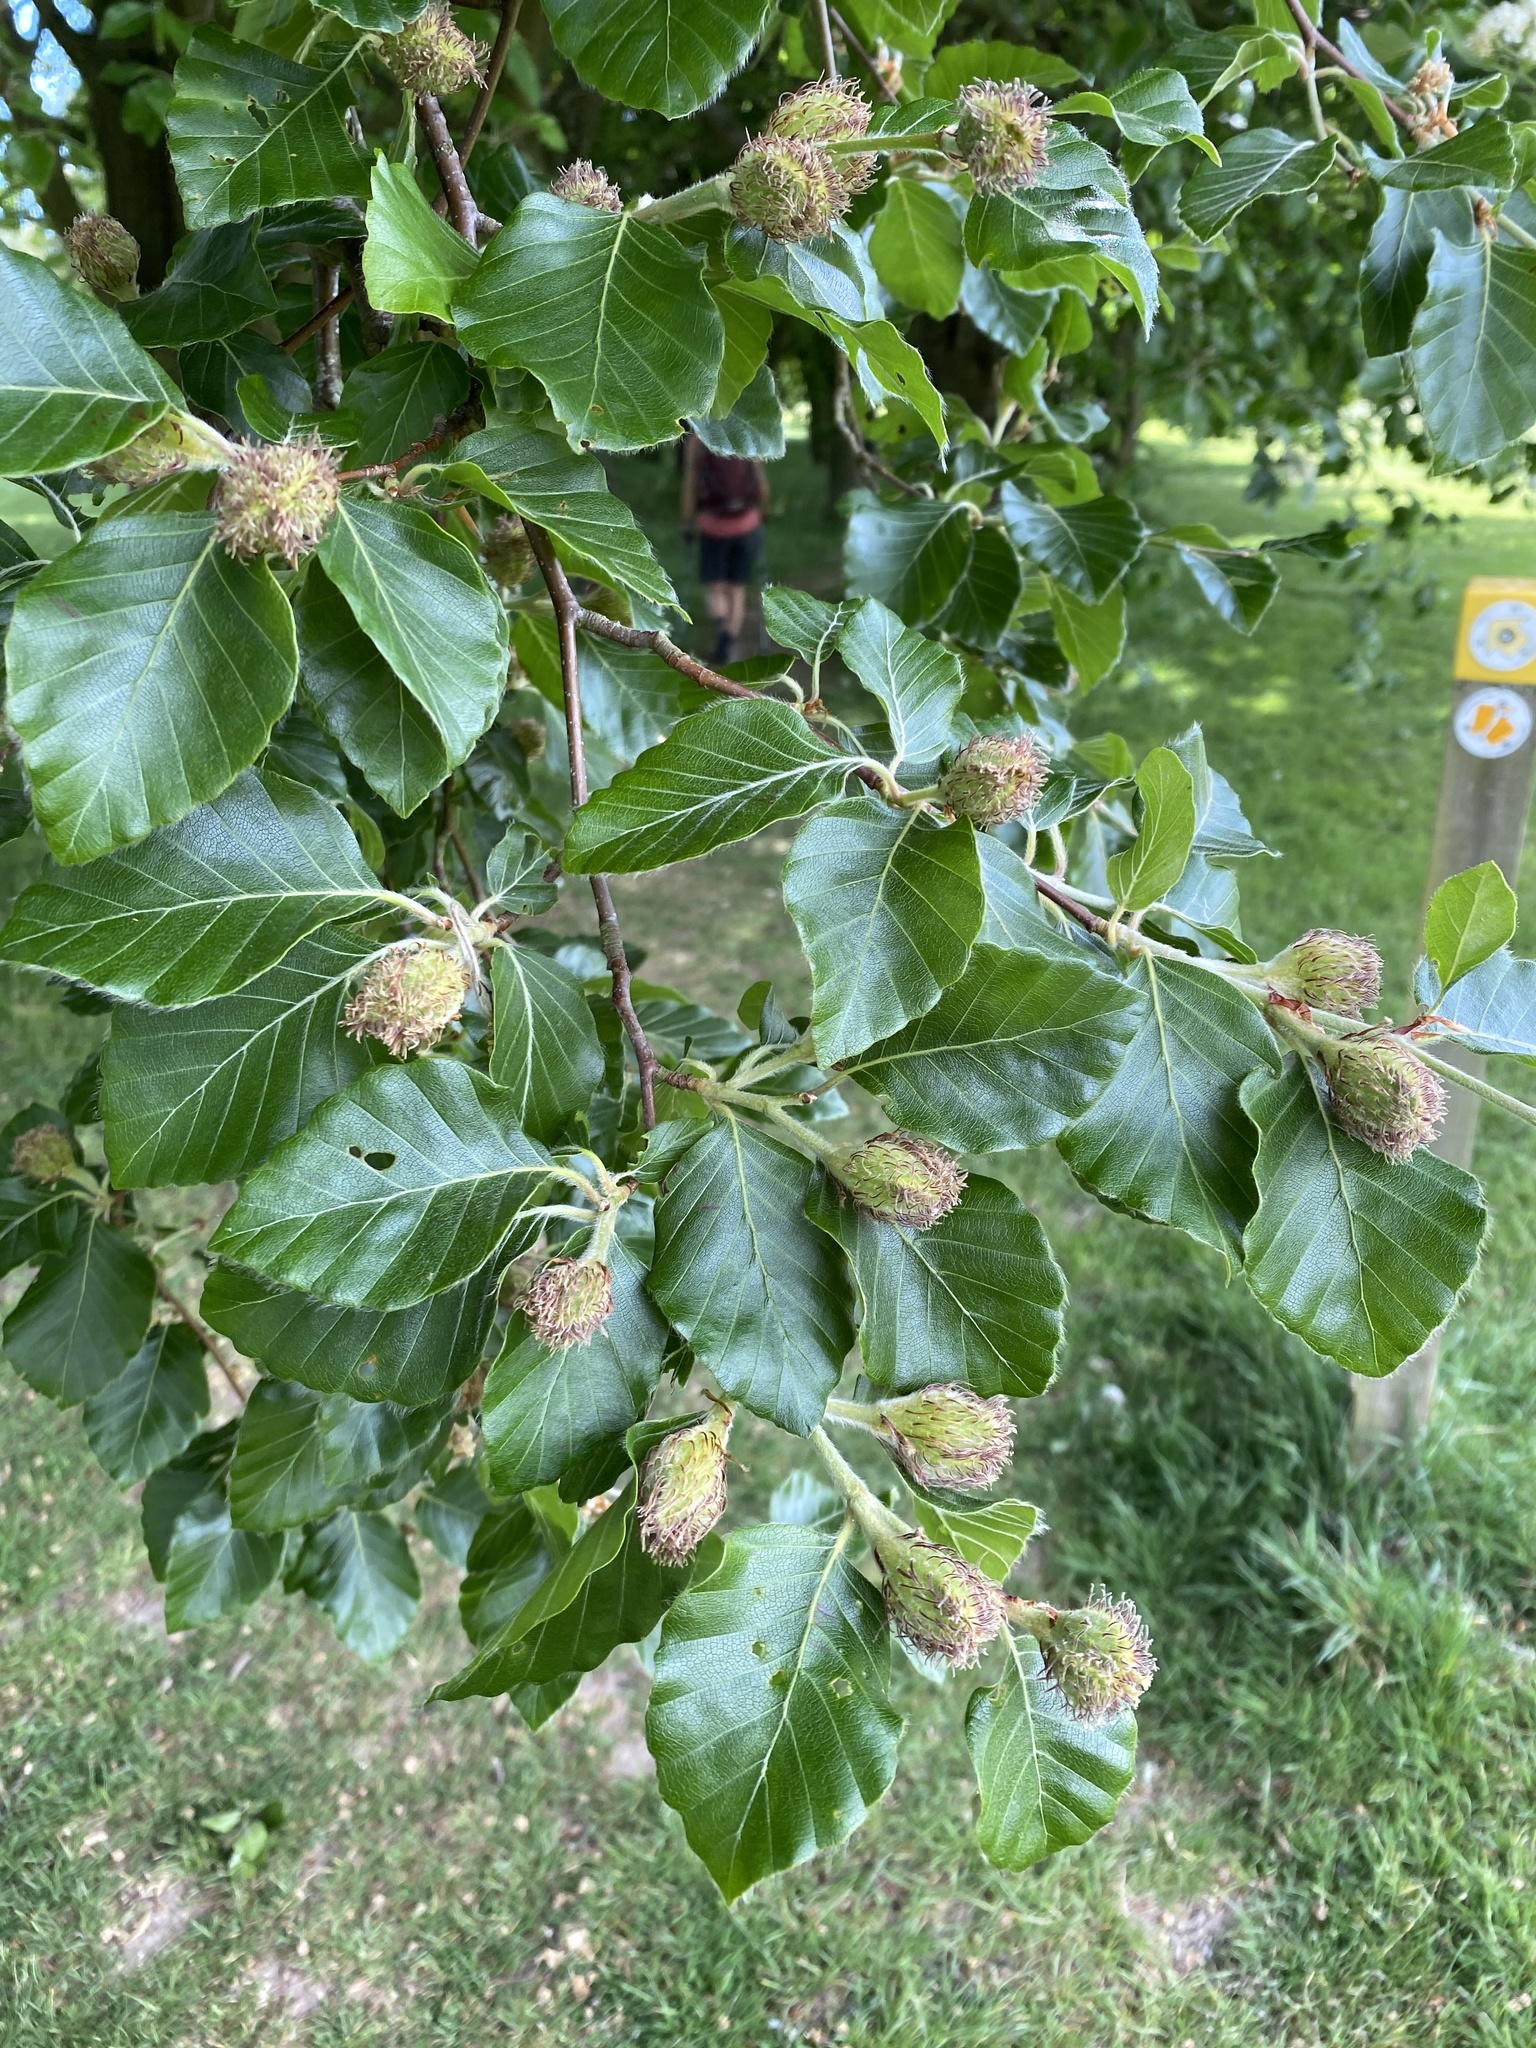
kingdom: Plantae
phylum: Tracheophyta
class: Magnoliopsida
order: Fagales
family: Fagaceae
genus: Fagus
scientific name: Fagus sylvatica
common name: Beech
